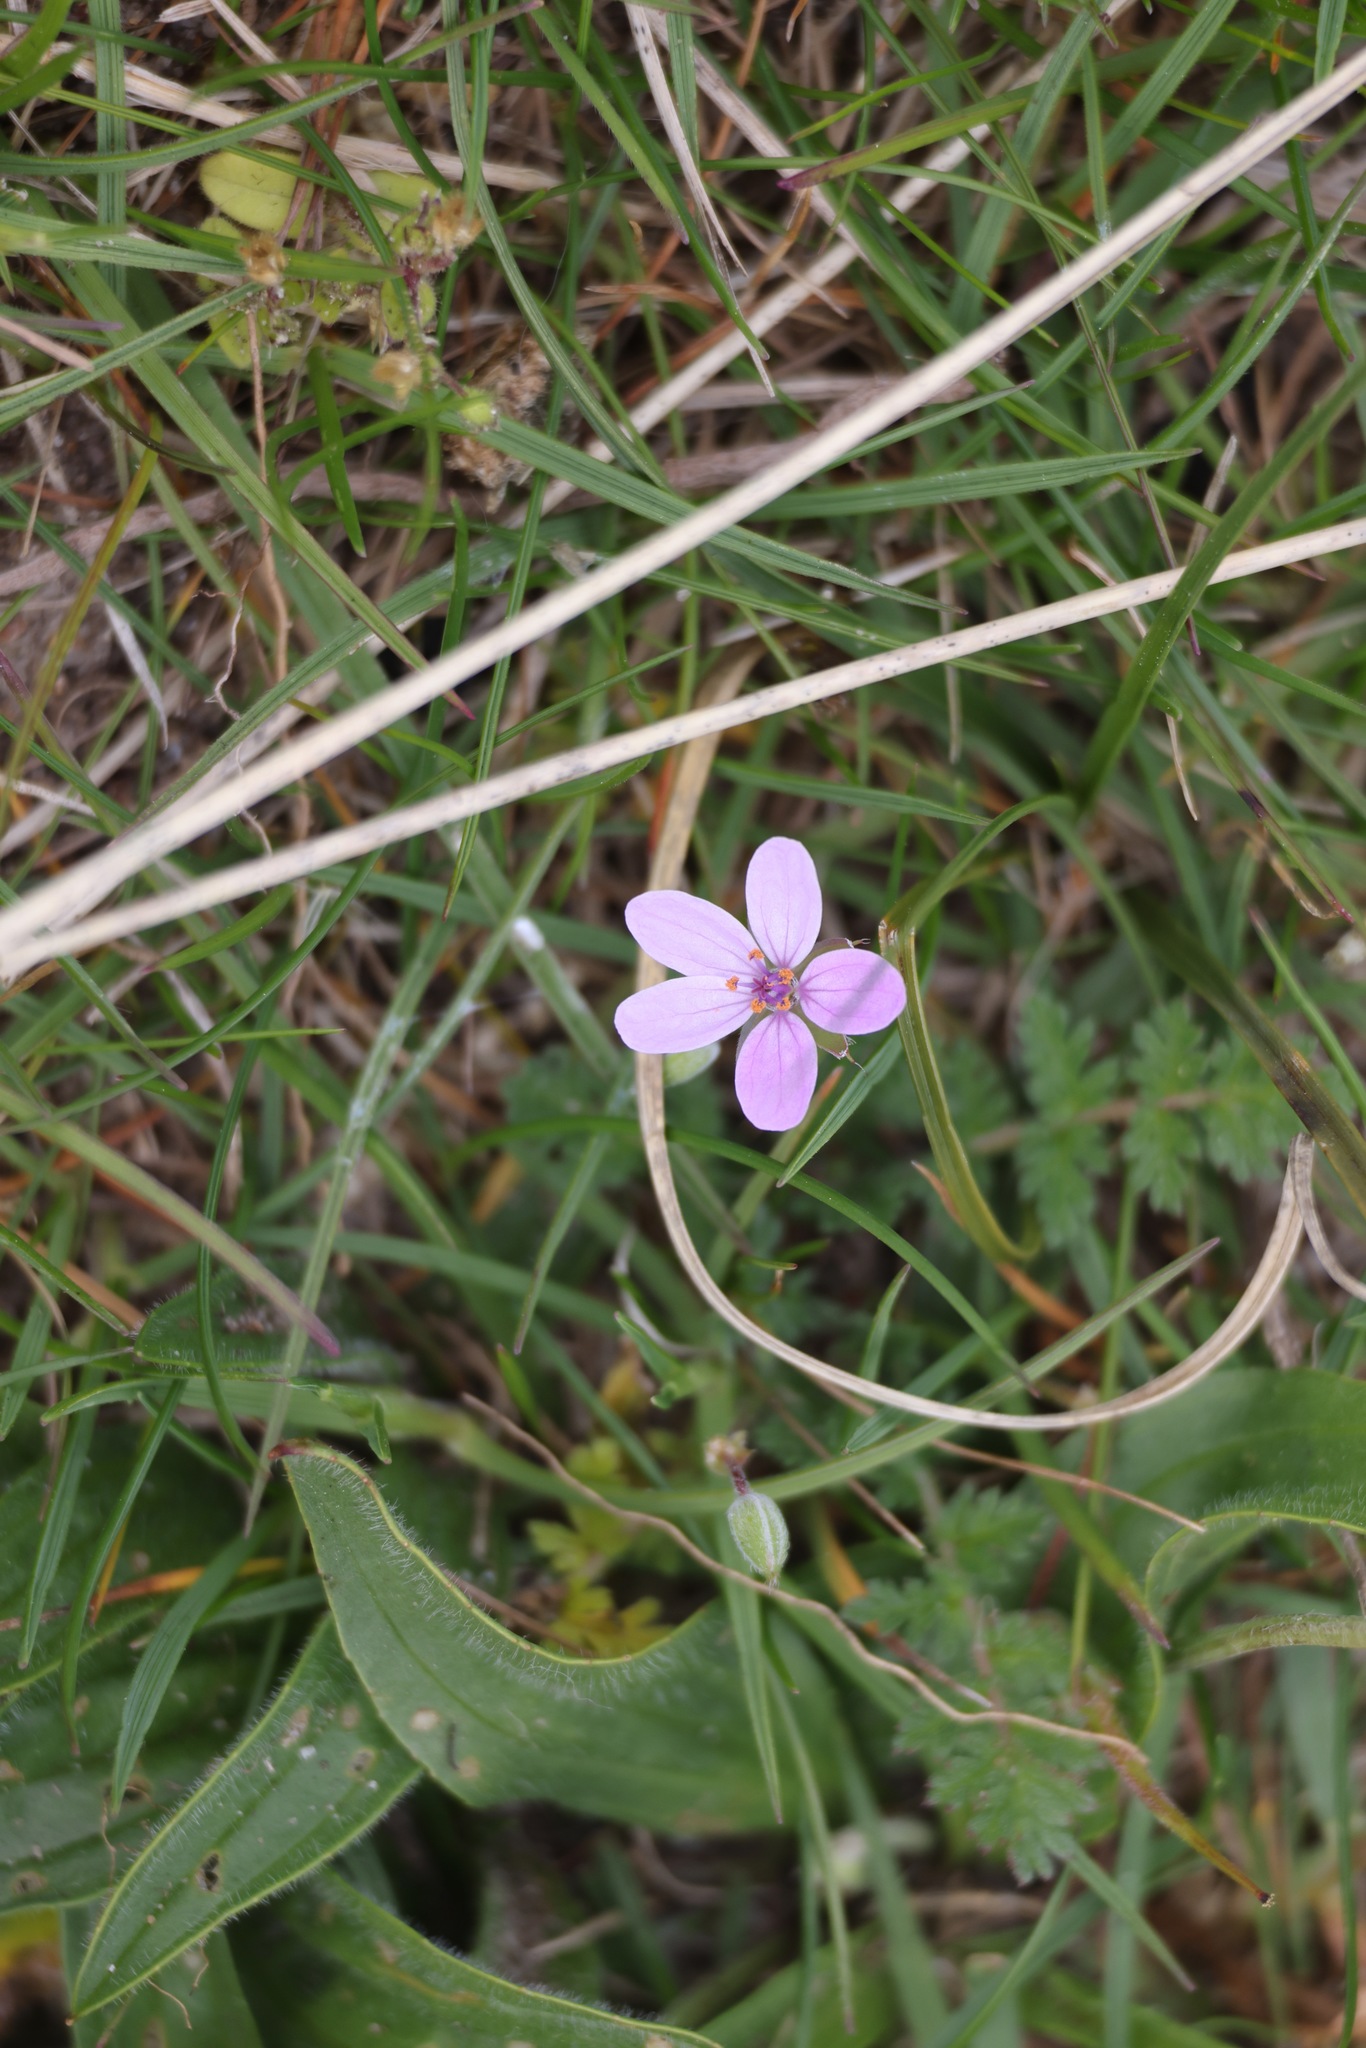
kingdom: Plantae
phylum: Tracheophyta
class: Magnoliopsida
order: Geraniales
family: Geraniaceae
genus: Erodium
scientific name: Erodium cicutarium
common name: Common stork's-bill
